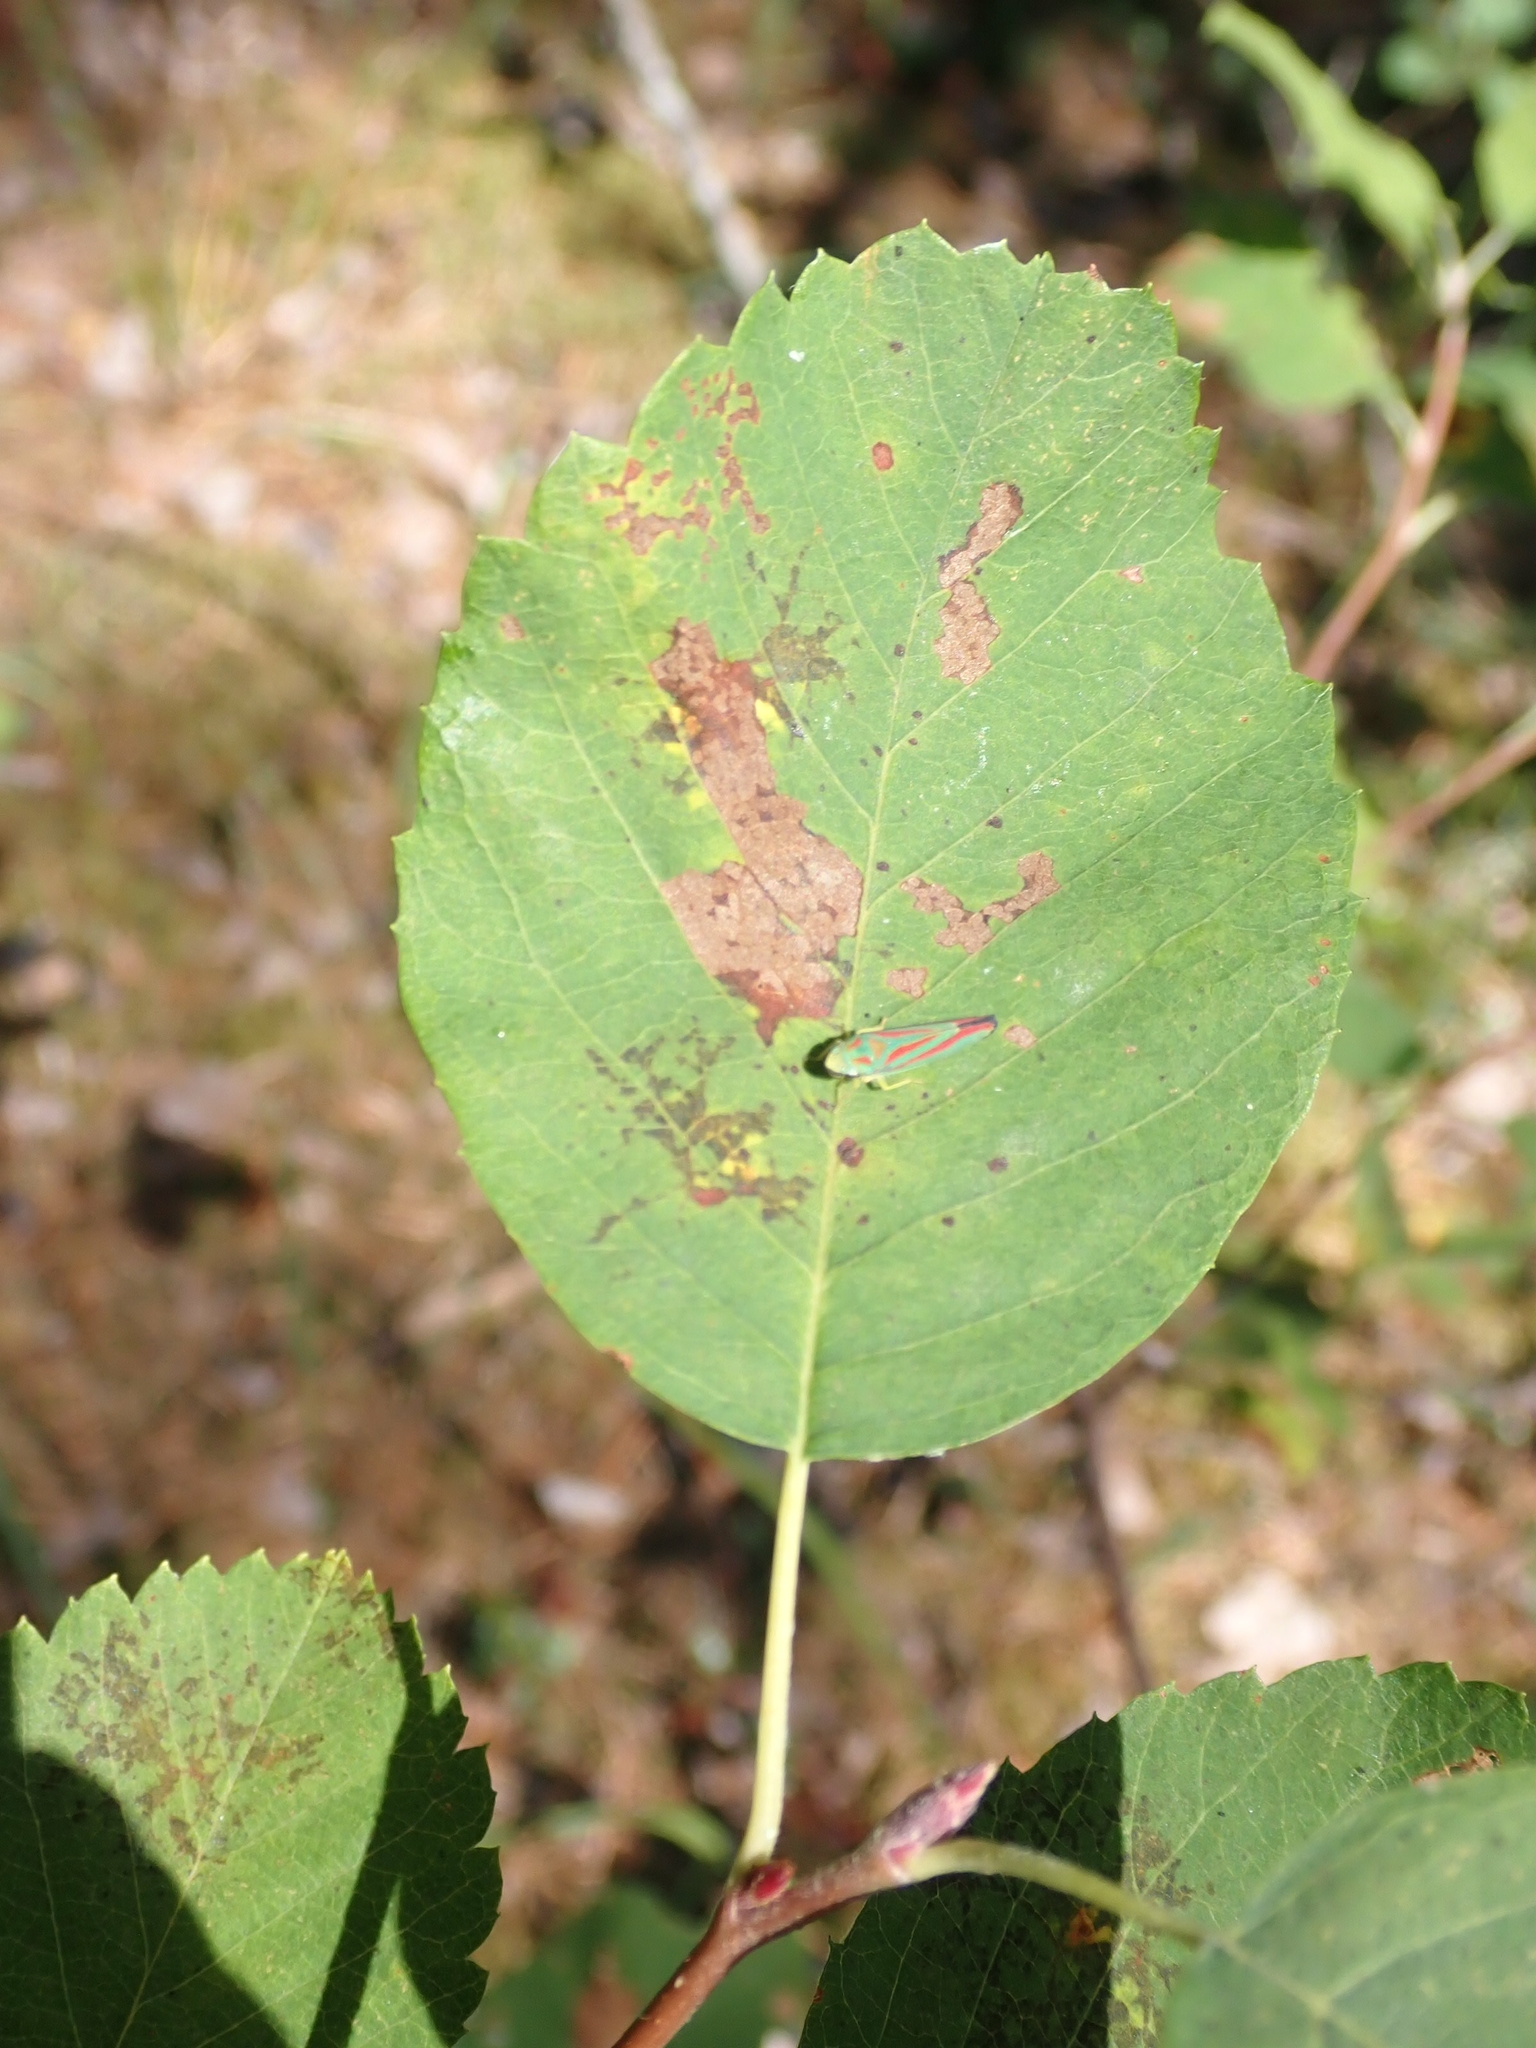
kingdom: Plantae
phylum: Tracheophyta
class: Magnoliopsida
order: Rosales
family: Rosaceae
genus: Amelanchier
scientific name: Amelanchier alnifolia
